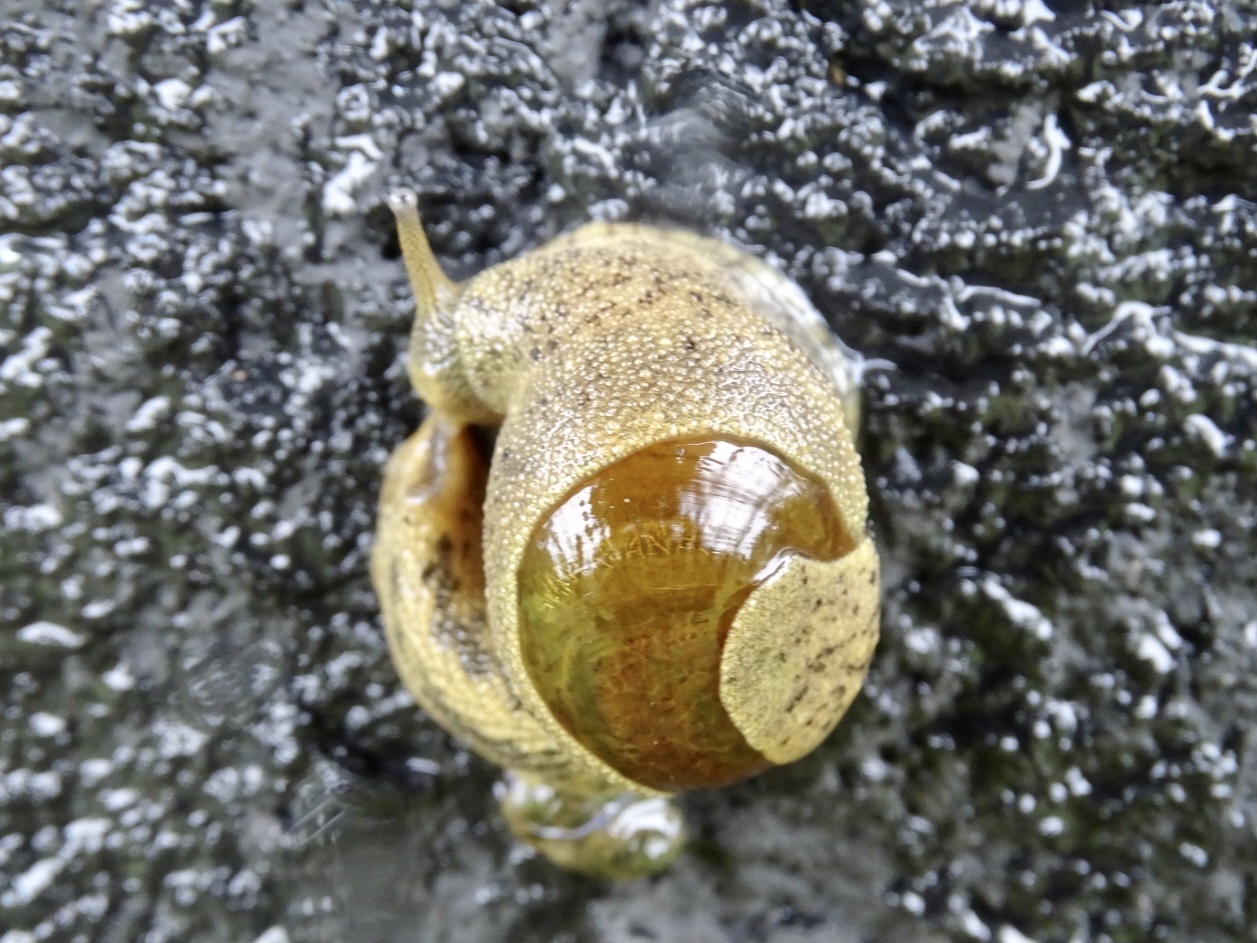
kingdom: Animalia
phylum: Mollusca
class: Gastropoda
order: Stylommatophora
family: Ariophantidae
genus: Megaustenia
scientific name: Megaustenia imperator
